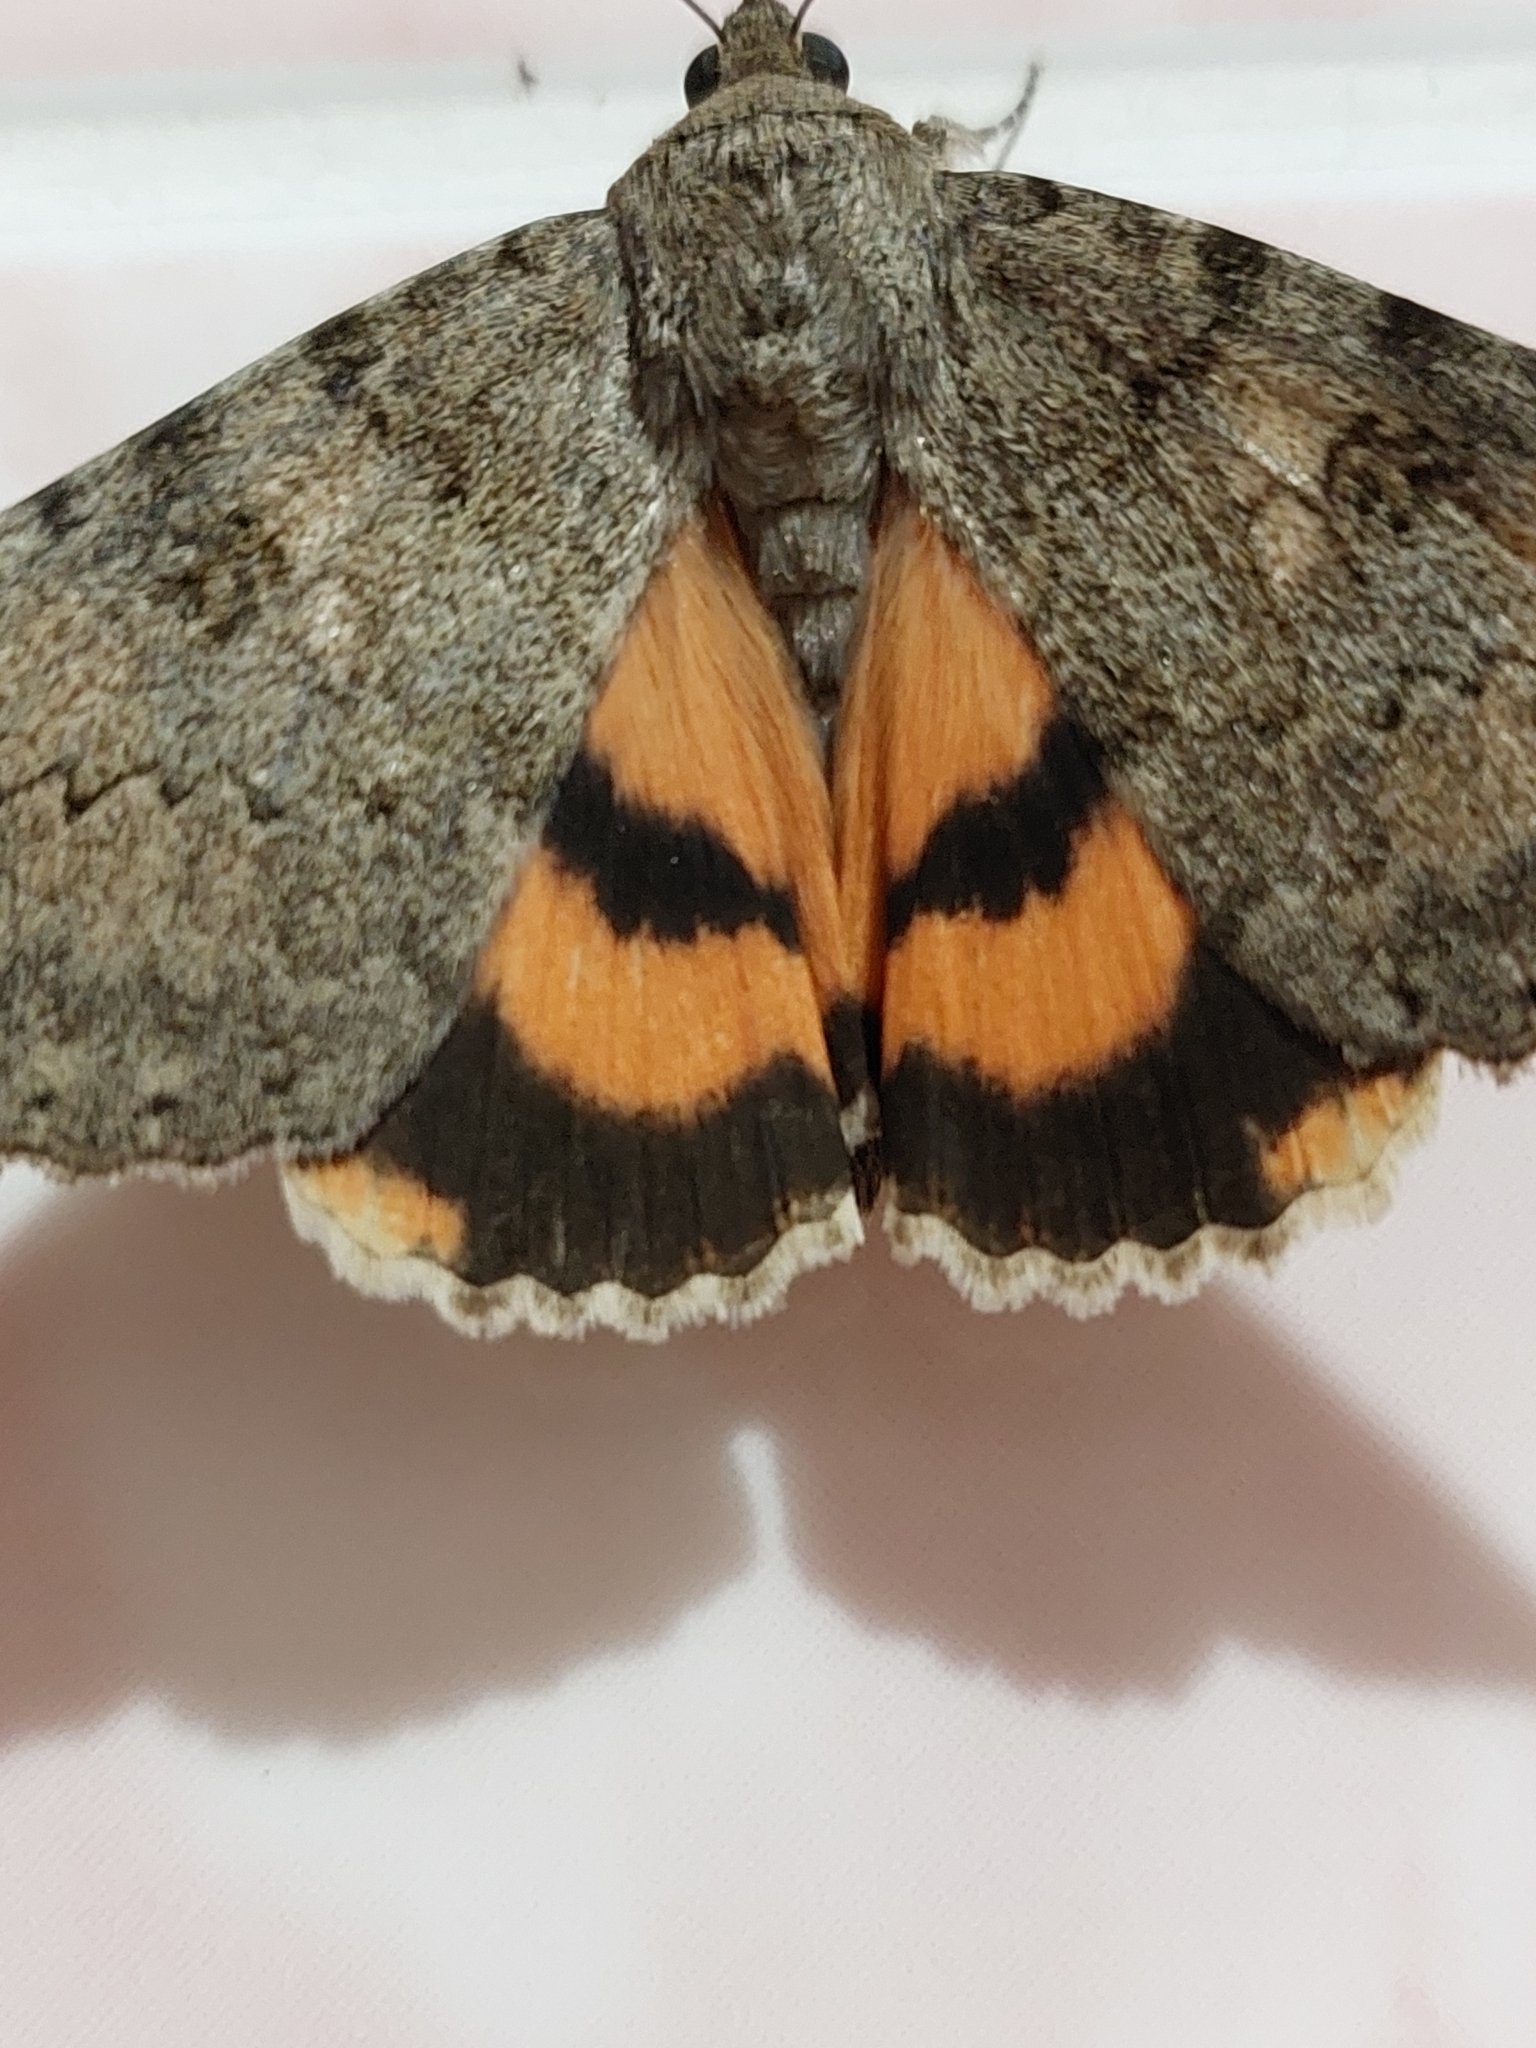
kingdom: Animalia
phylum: Arthropoda
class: Insecta
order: Lepidoptera
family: Erebidae
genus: Catocala
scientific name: Catocala puerpera
